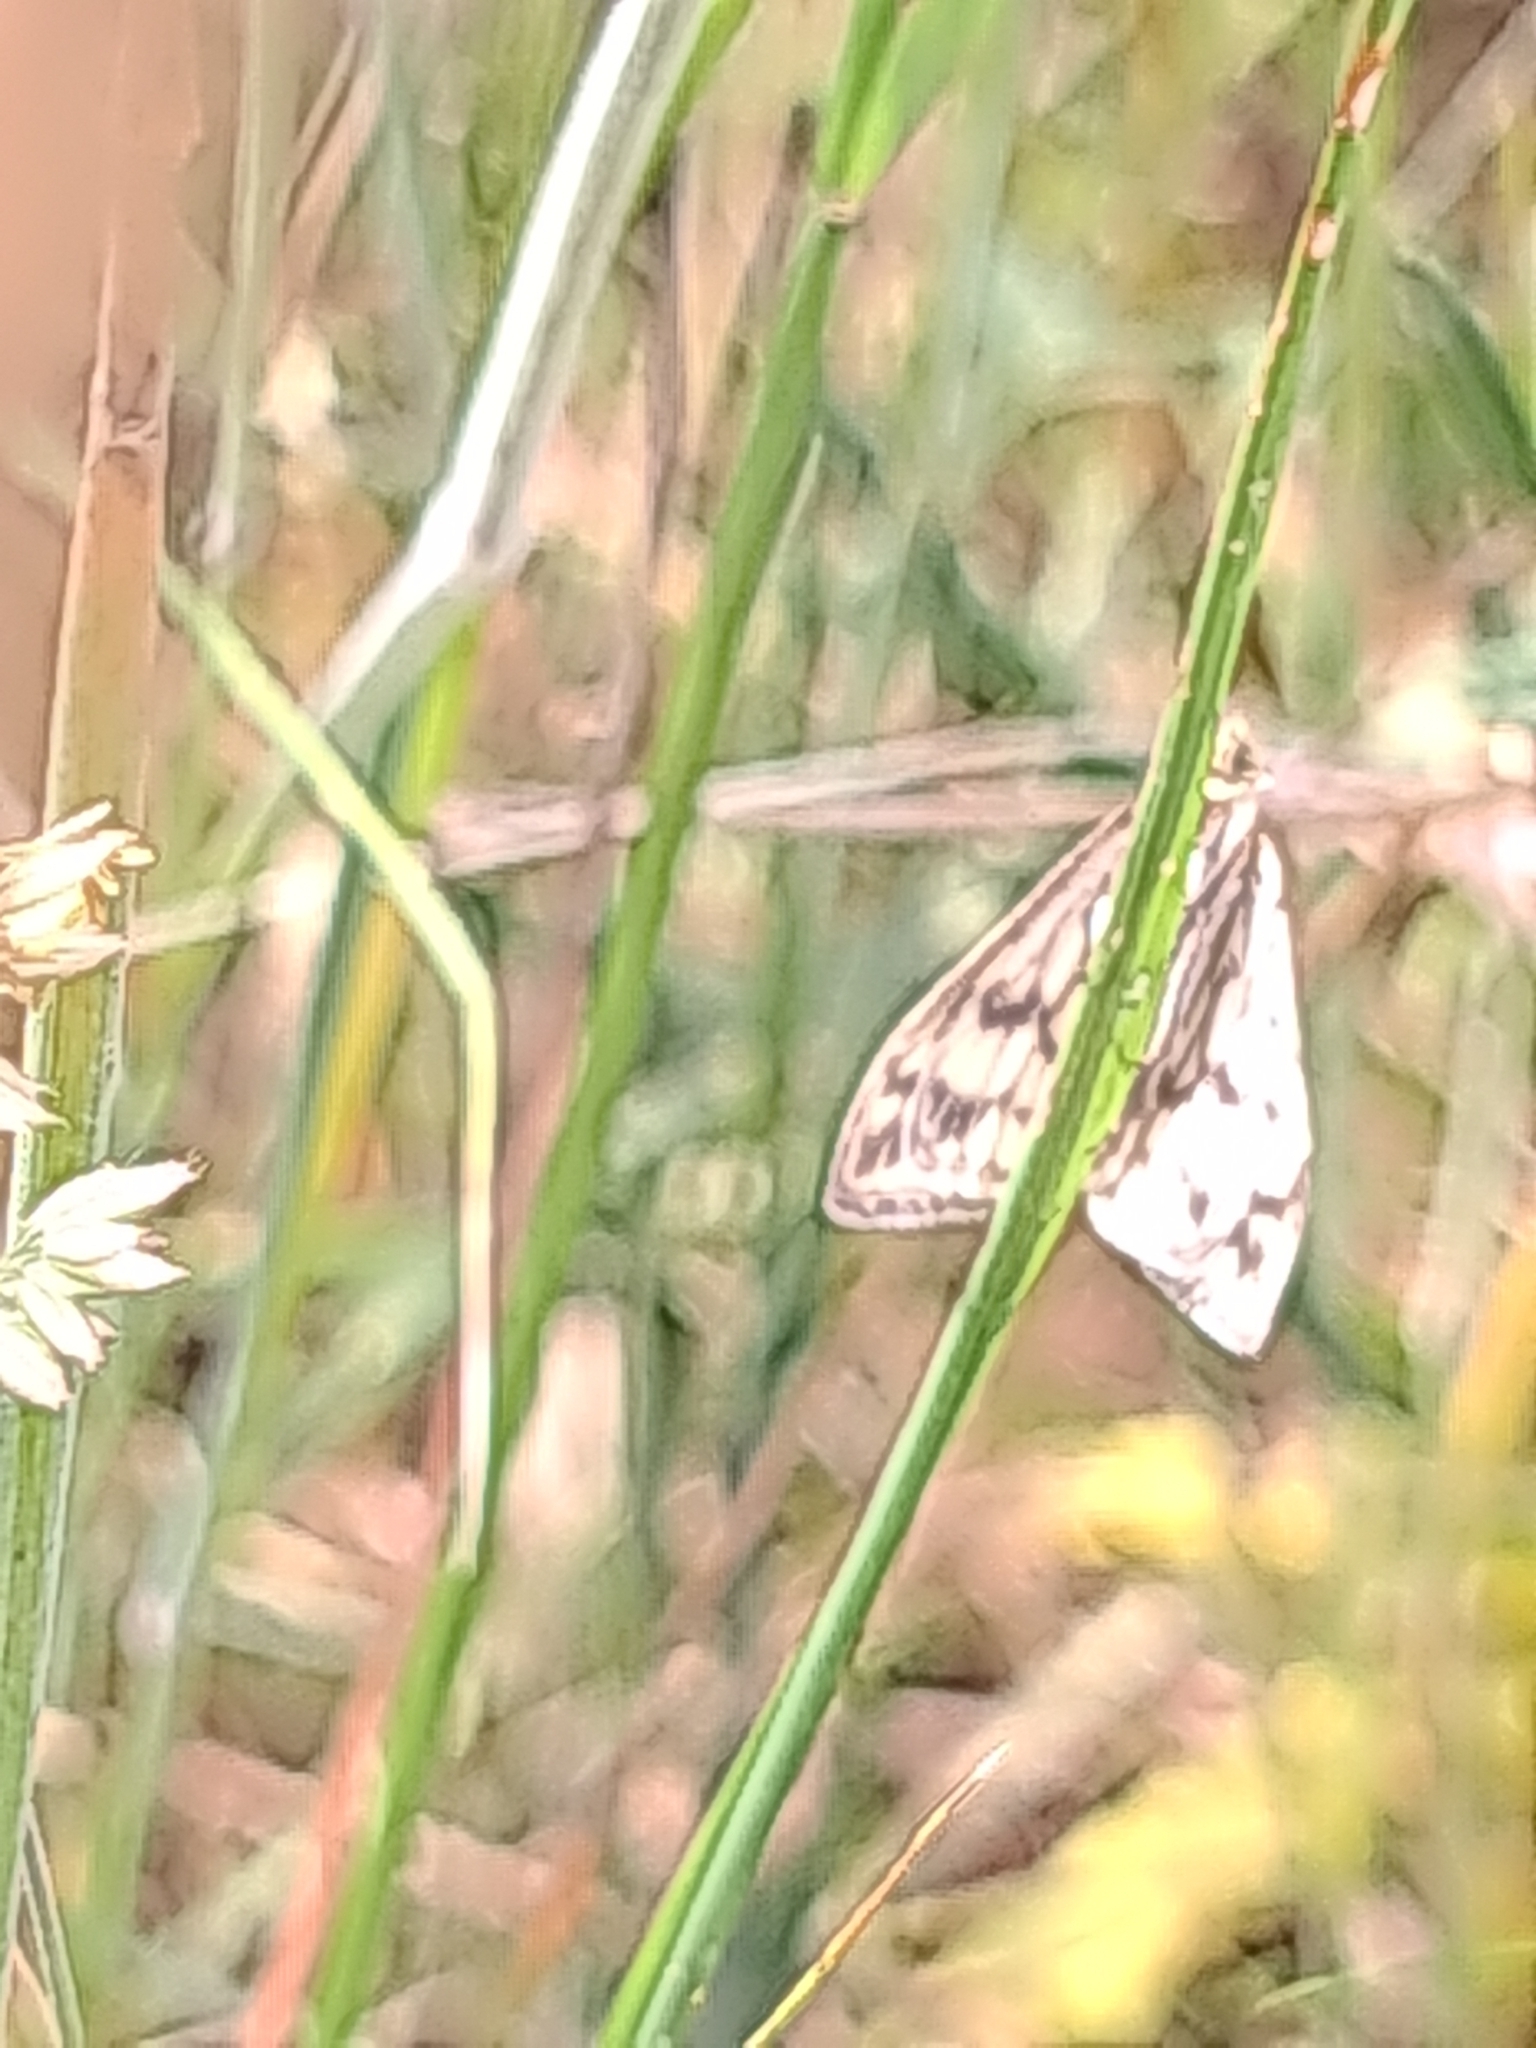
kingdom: Animalia
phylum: Arthropoda
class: Insecta
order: Lepidoptera
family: Crambidae
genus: Sitochroa
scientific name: Sitochroa verticalis
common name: Lesser pearl
